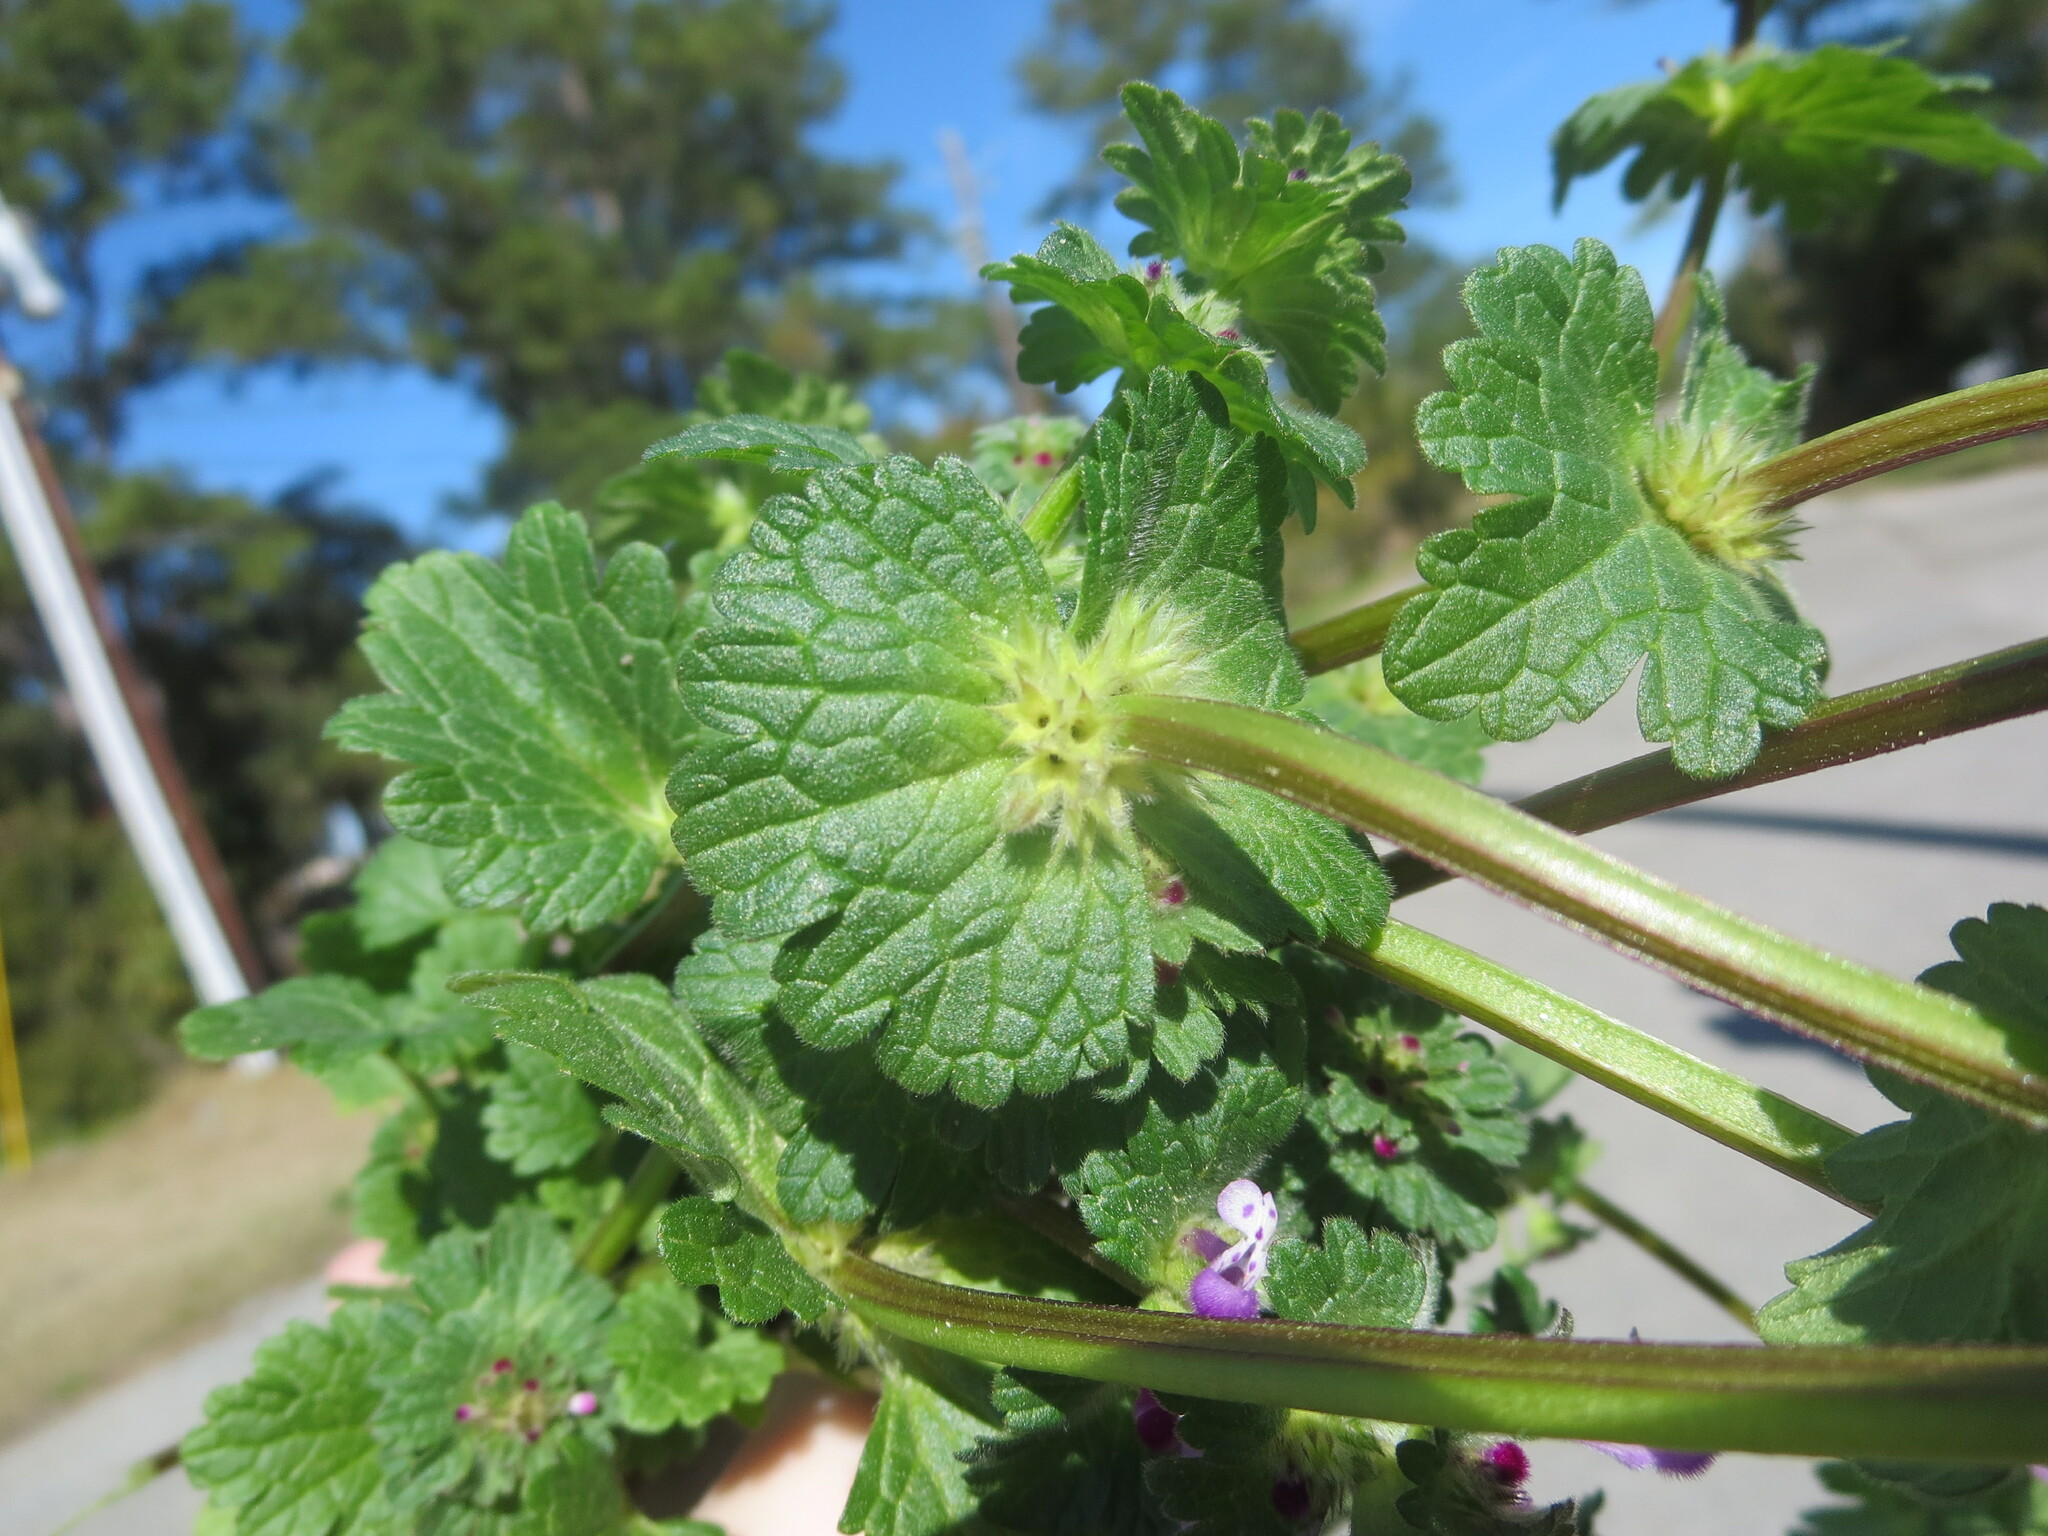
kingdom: Plantae
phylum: Tracheophyta
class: Magnoliopsida
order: Lamiales
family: Lamiaceae
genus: Lamium
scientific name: Lamium amplexicaule
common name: Henbit dead-nettle
